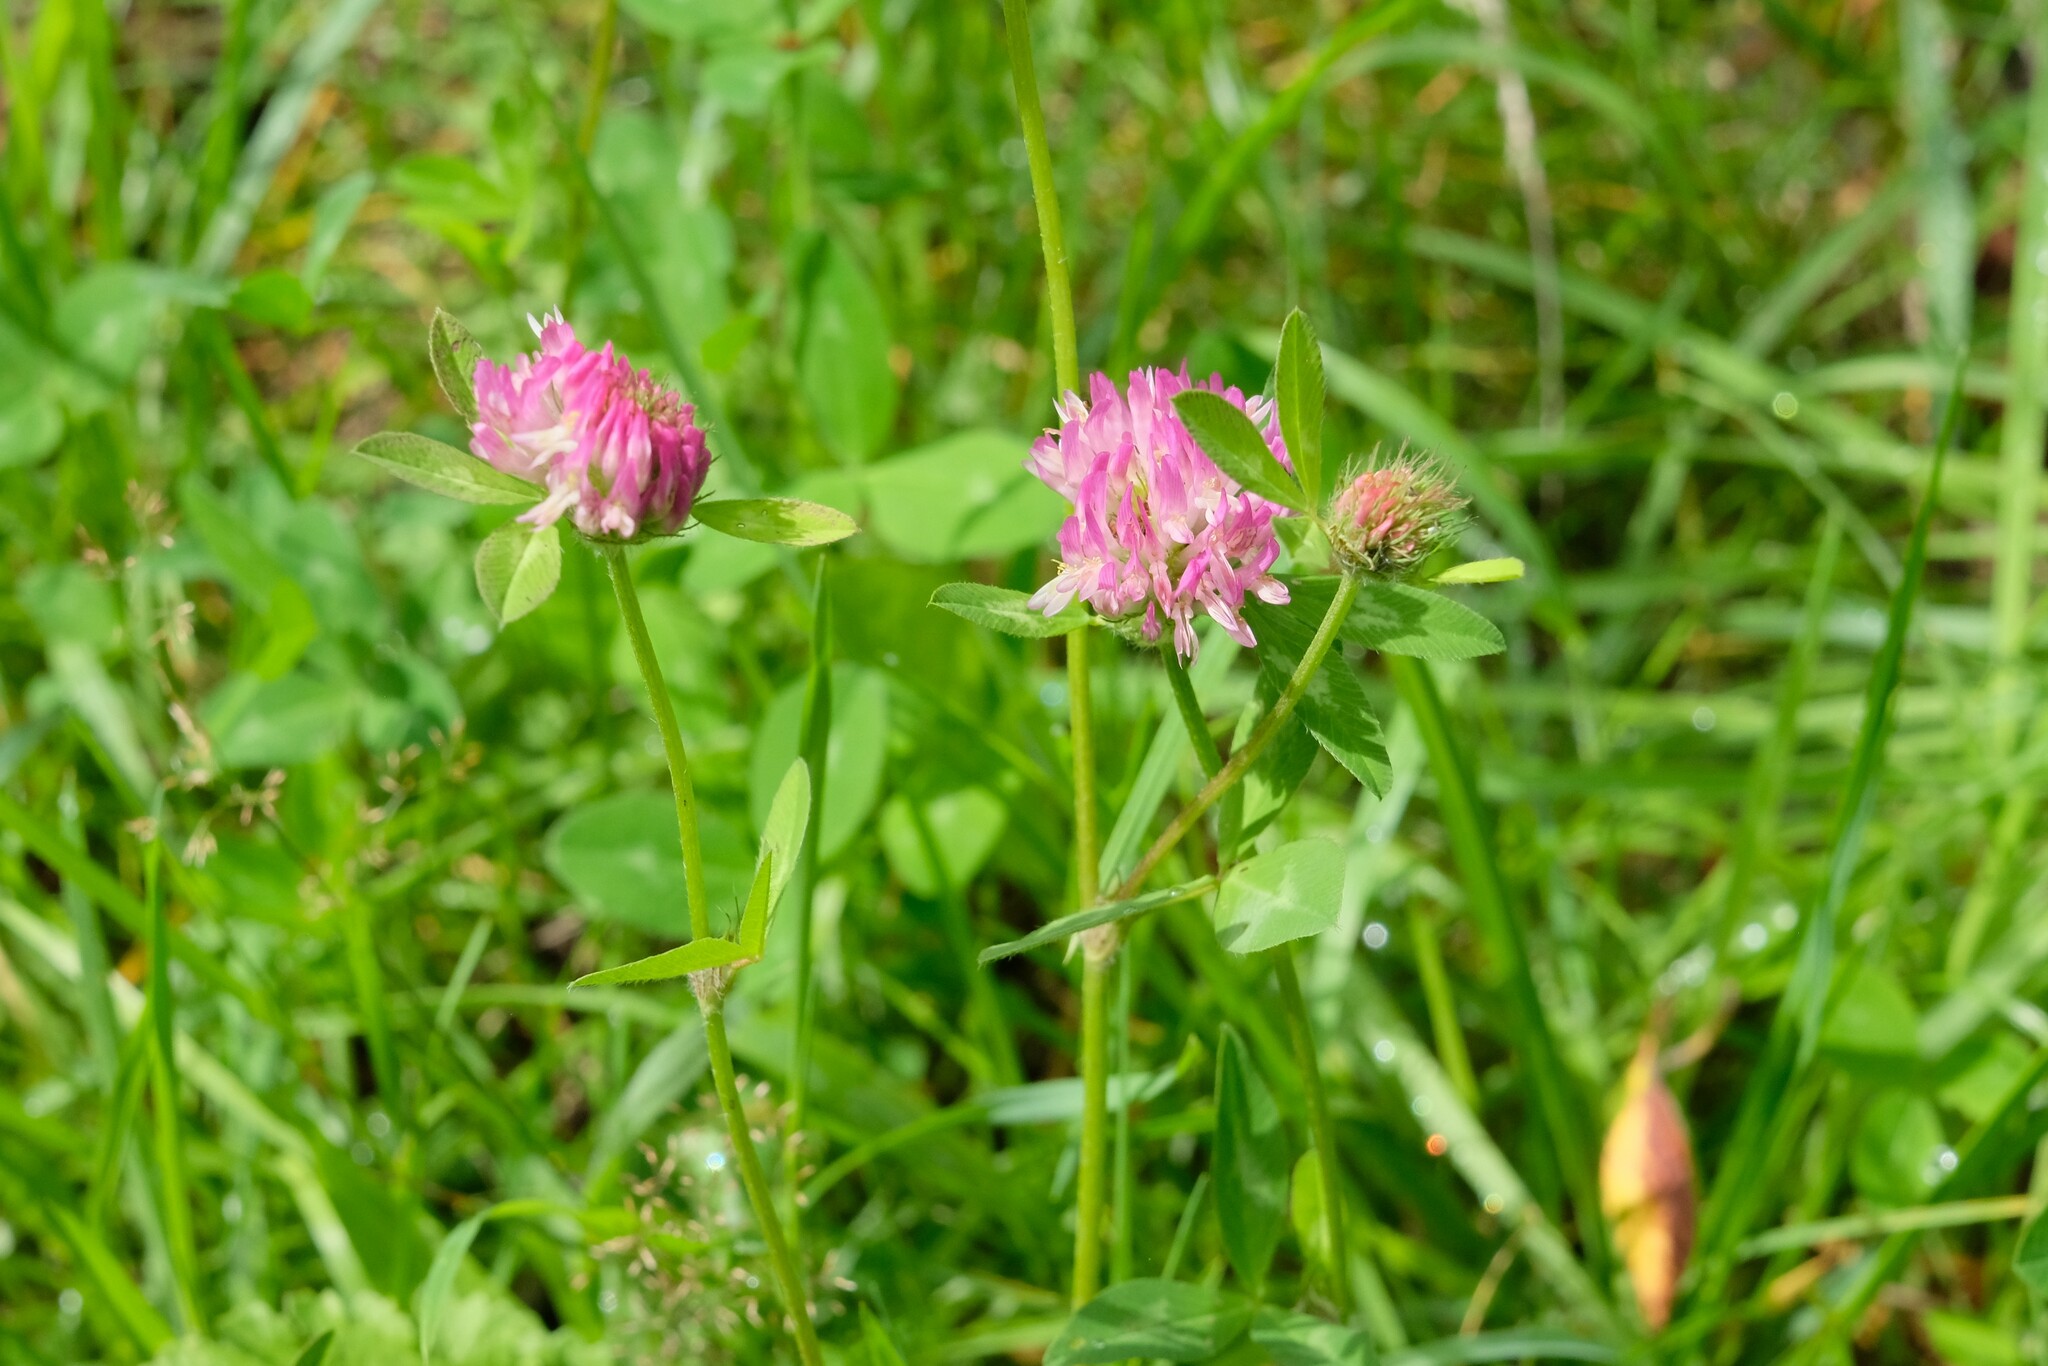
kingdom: Plantae
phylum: Tracheophyta
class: Magnoliopsida
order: Fabales
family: Fabaceae
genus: Trifolium
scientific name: Trifolium pratense
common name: Red clover
